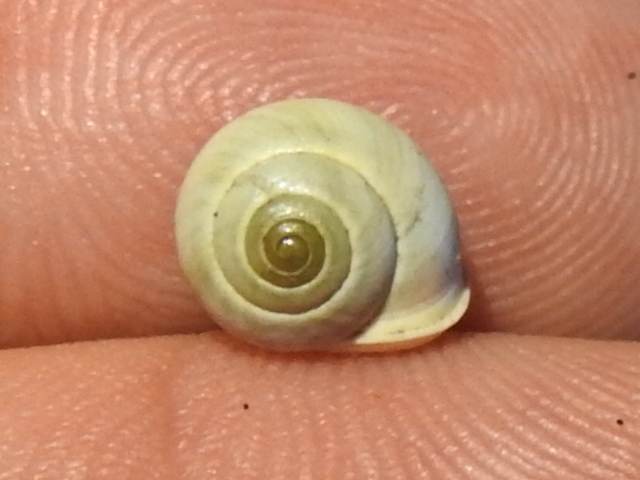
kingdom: Animalia
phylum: Mollusca
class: Gastropoda
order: Cycloneritida
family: Helicinidae
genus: Helicina
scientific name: Helicina orbiculata
